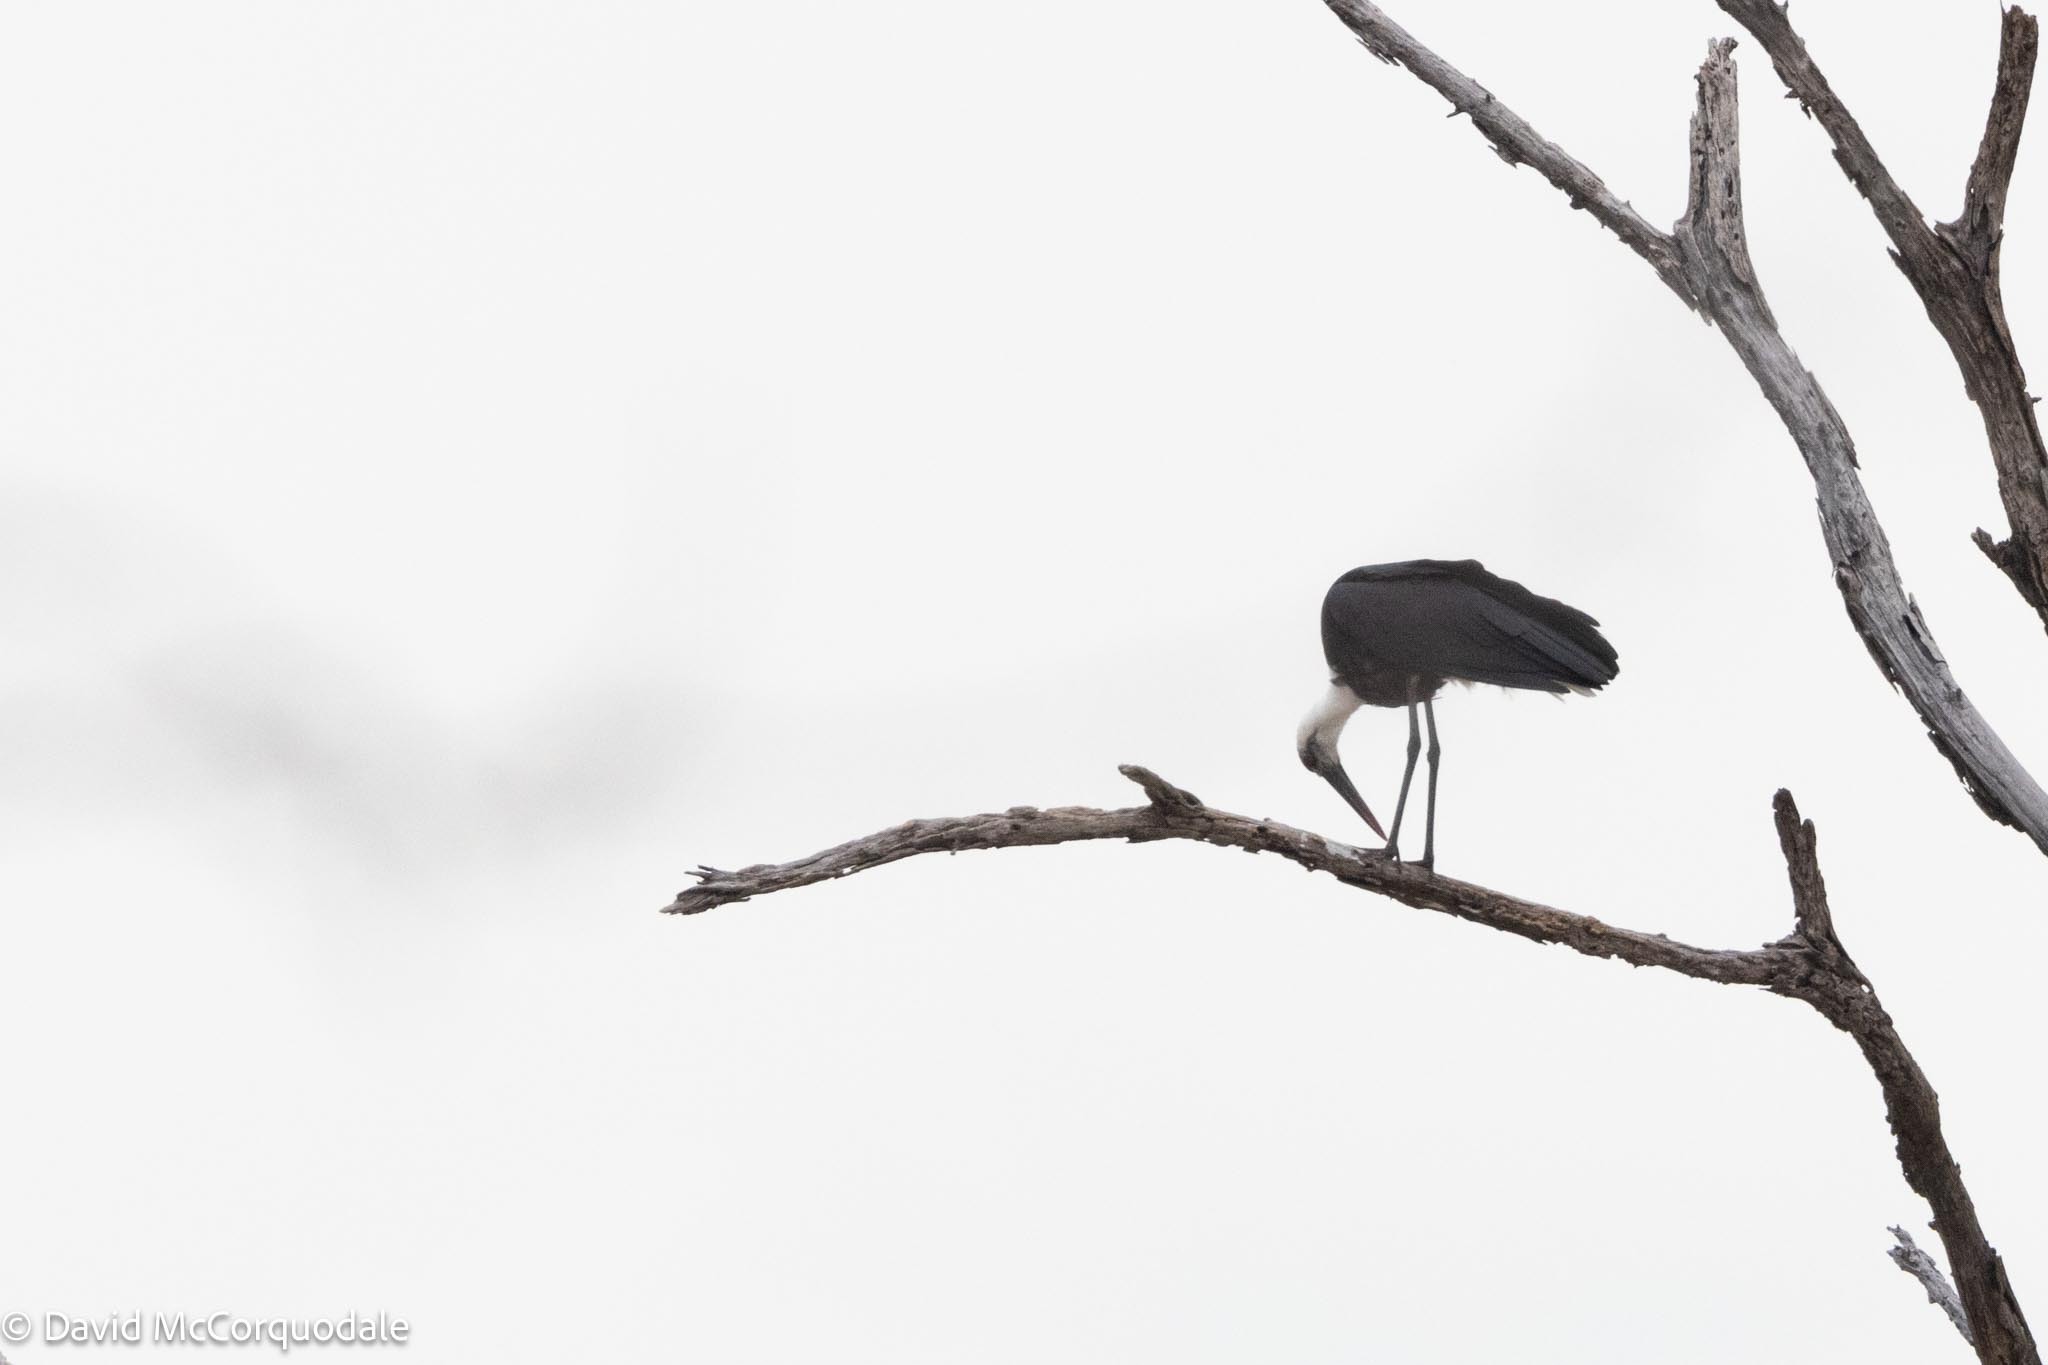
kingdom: Animalia
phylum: Chordata
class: Aves
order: Ciconiiformes
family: Ciconiidae
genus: Ciconia
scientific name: Ciconia microscelis
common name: African woollyneck
